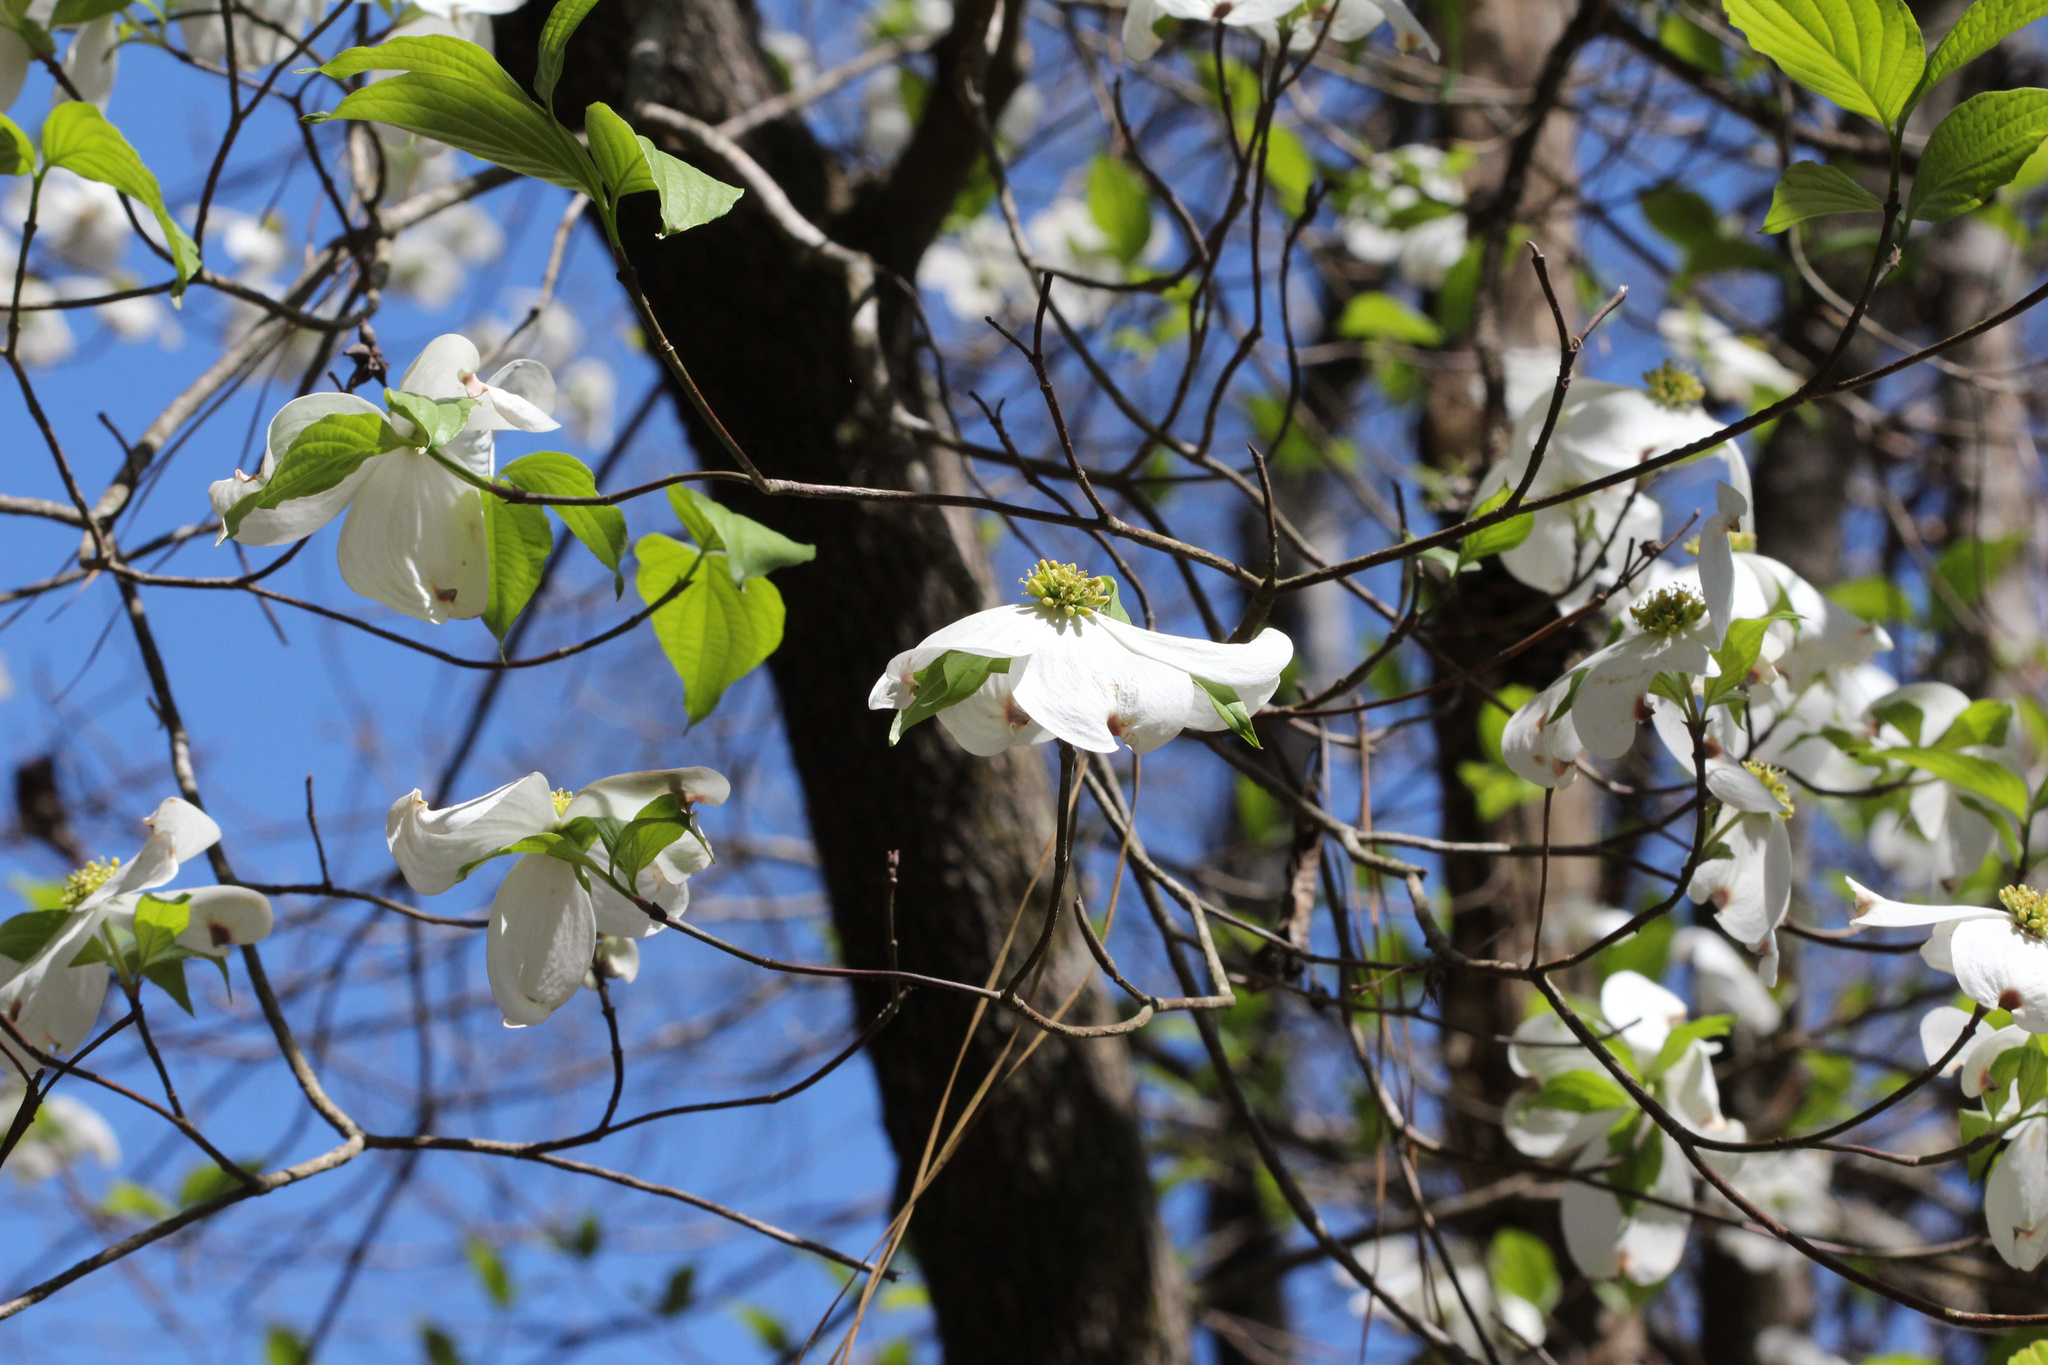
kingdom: Plantae
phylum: Tracheophyta
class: Magnoliopsida
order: Cornales
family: Cornaceae
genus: Cornus
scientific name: Cornus florida
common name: Flowering dogwood
